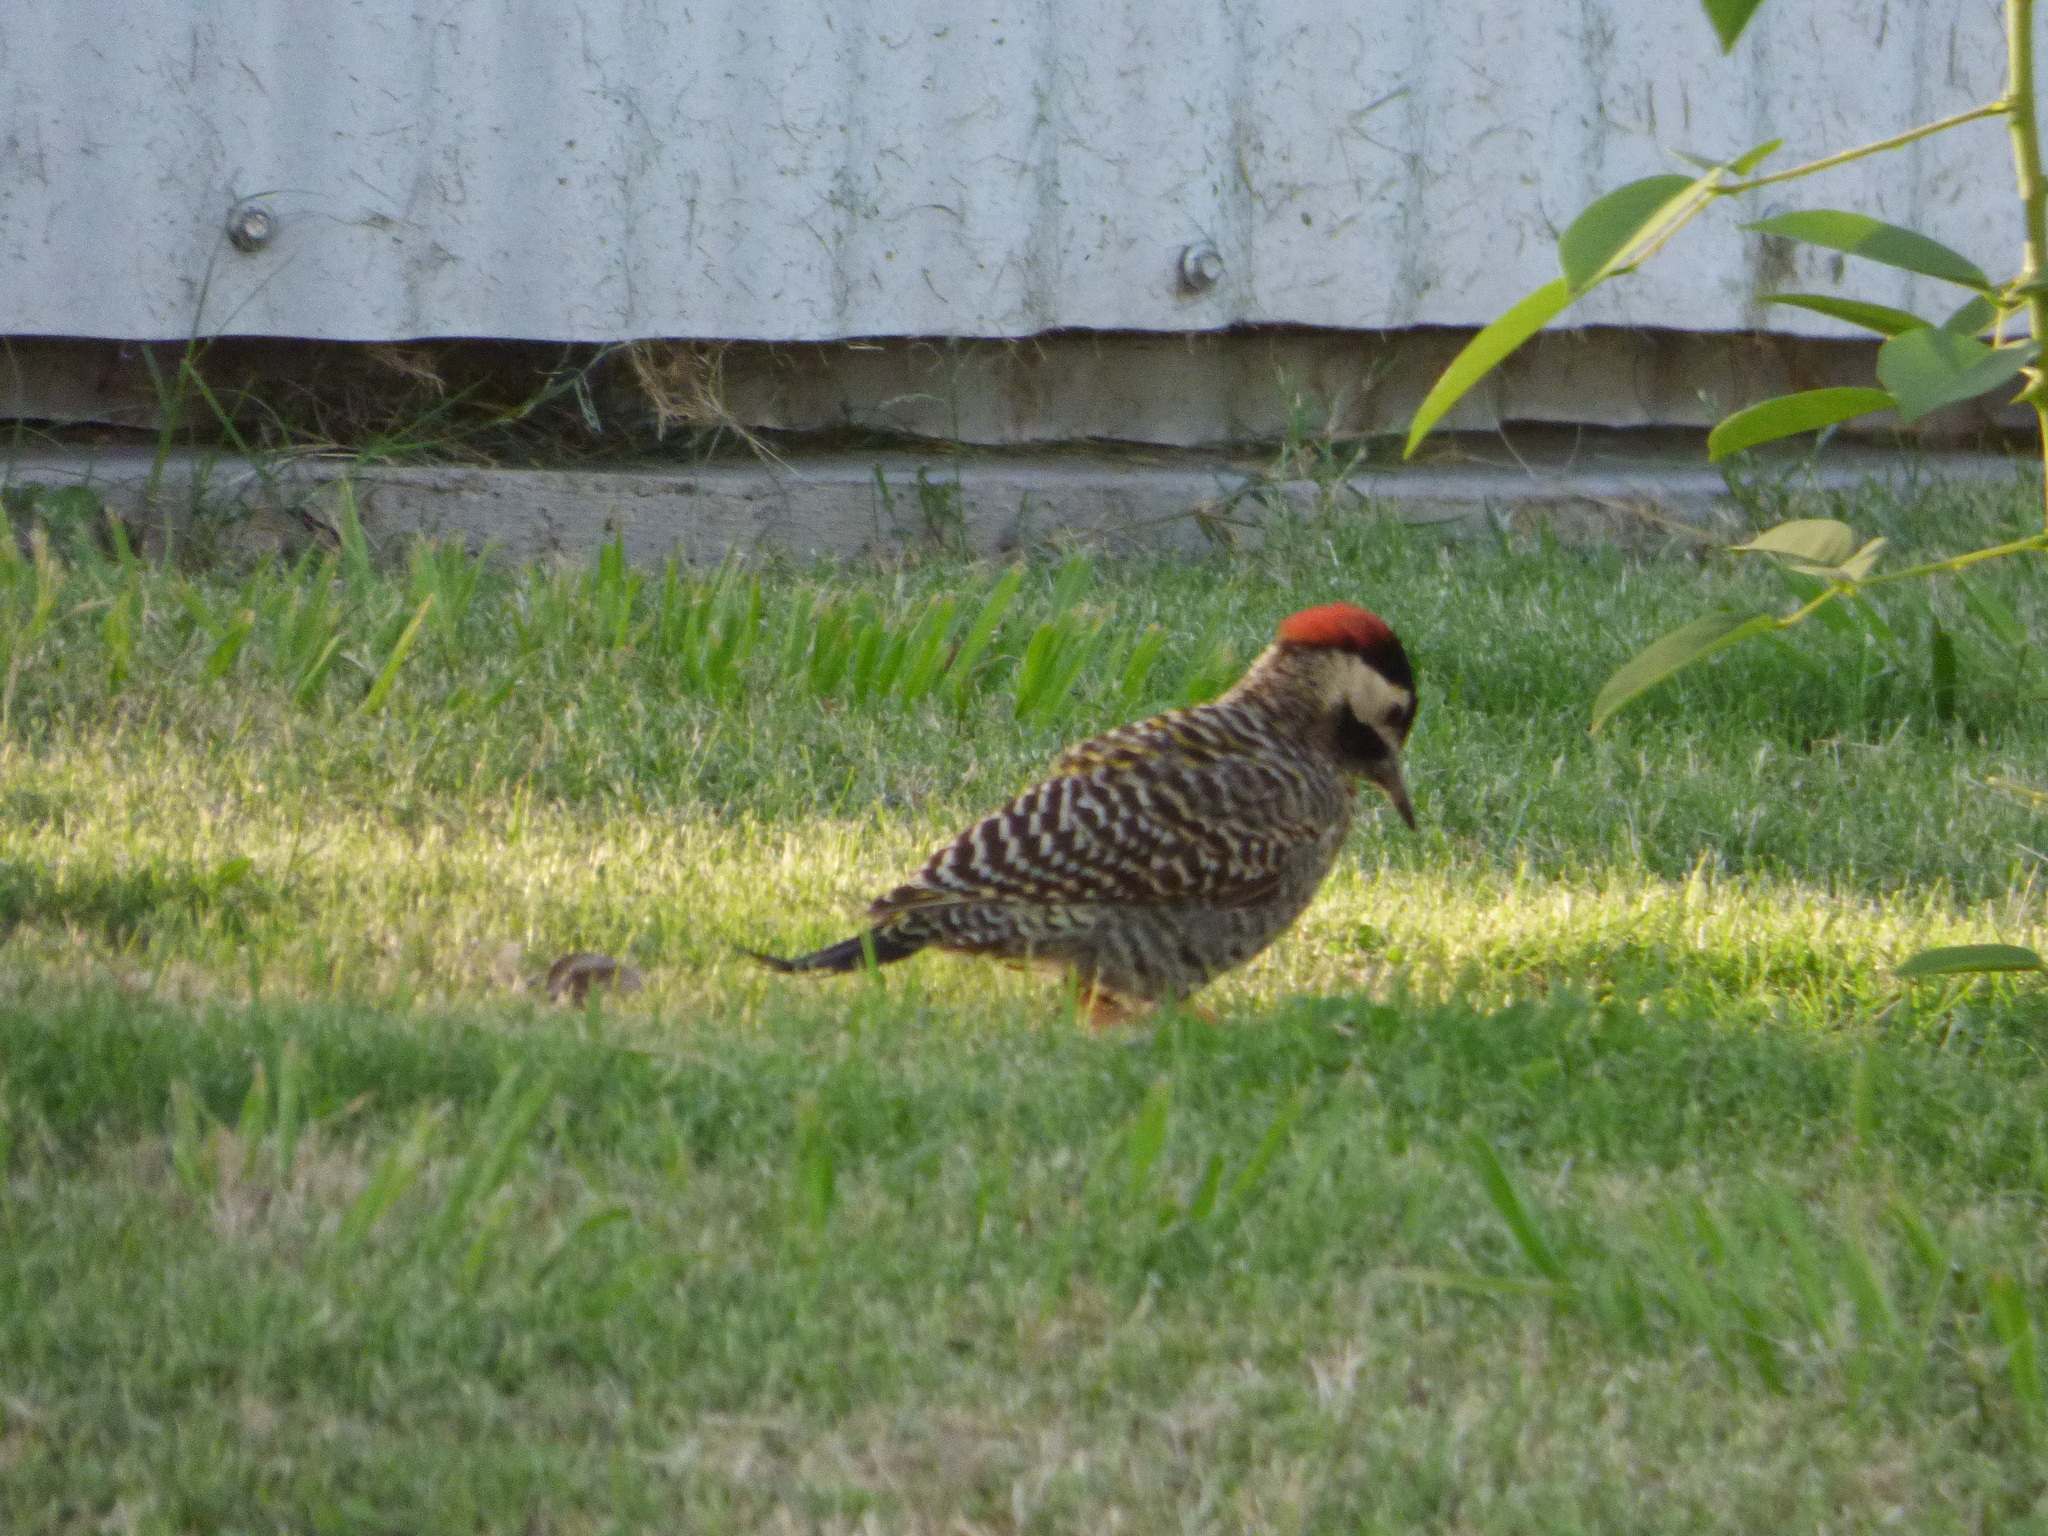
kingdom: Animalia
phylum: Chordata
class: Aves
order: Piciformes
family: Picidae
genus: Colaptes
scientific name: Colaptes melanochloros
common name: Green-barred woodpecker
